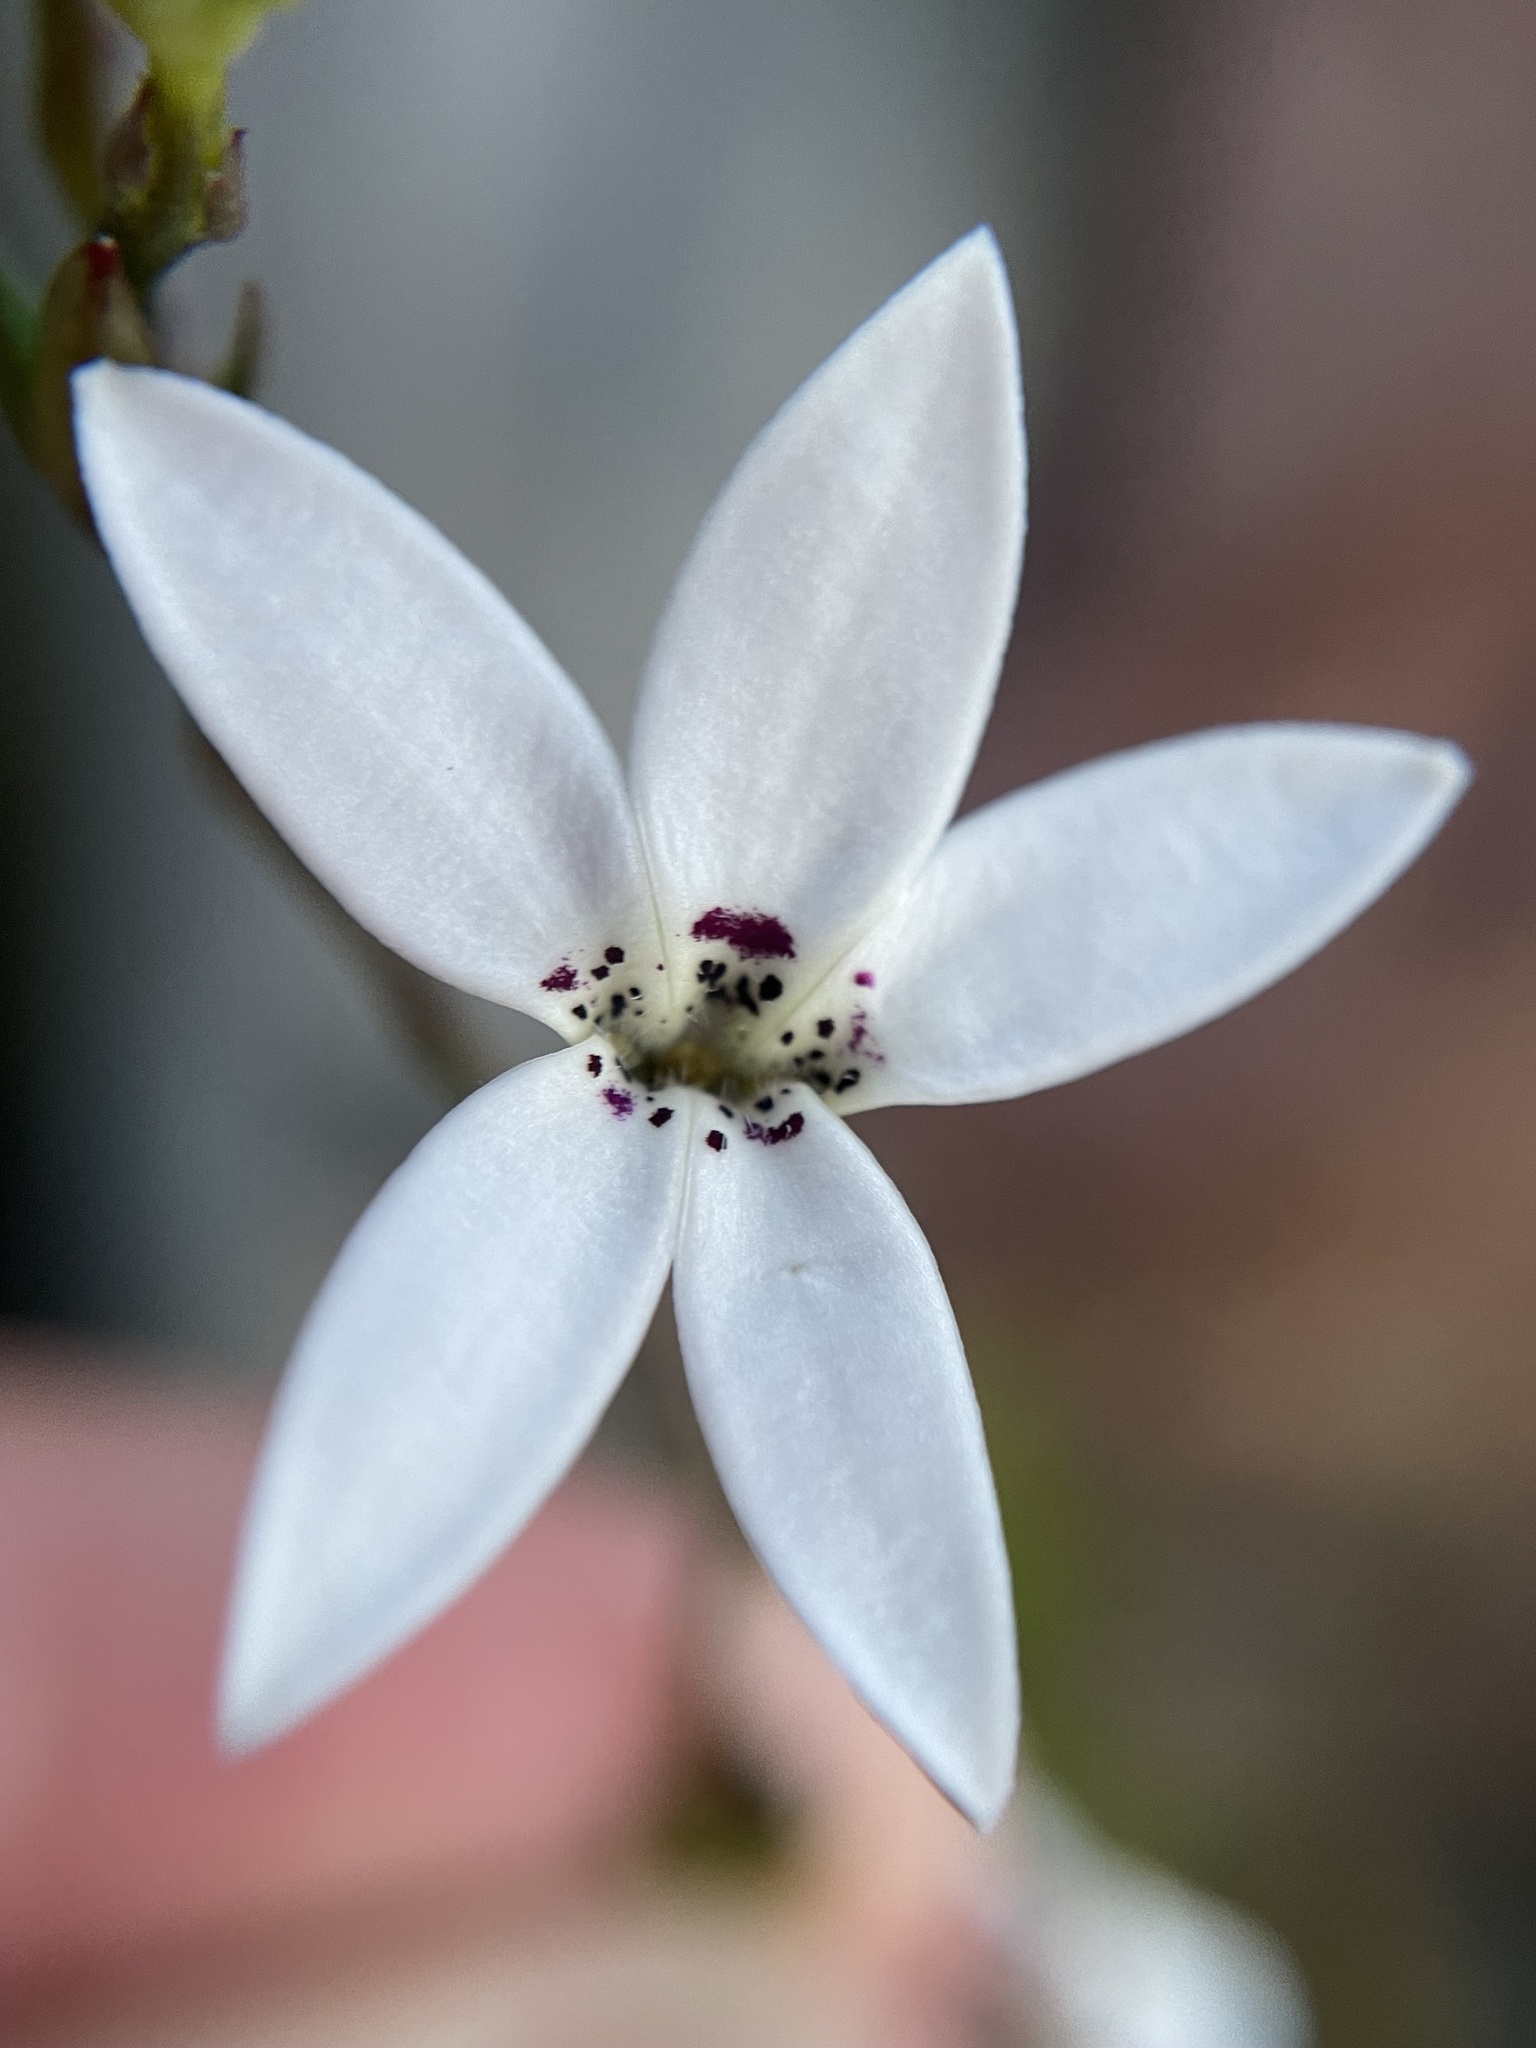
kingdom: Plantae
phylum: Tracheophyta
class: Magnoliopsida
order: Asterales
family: Campanulaceae
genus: Cyphia
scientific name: Cyphia volubilis
